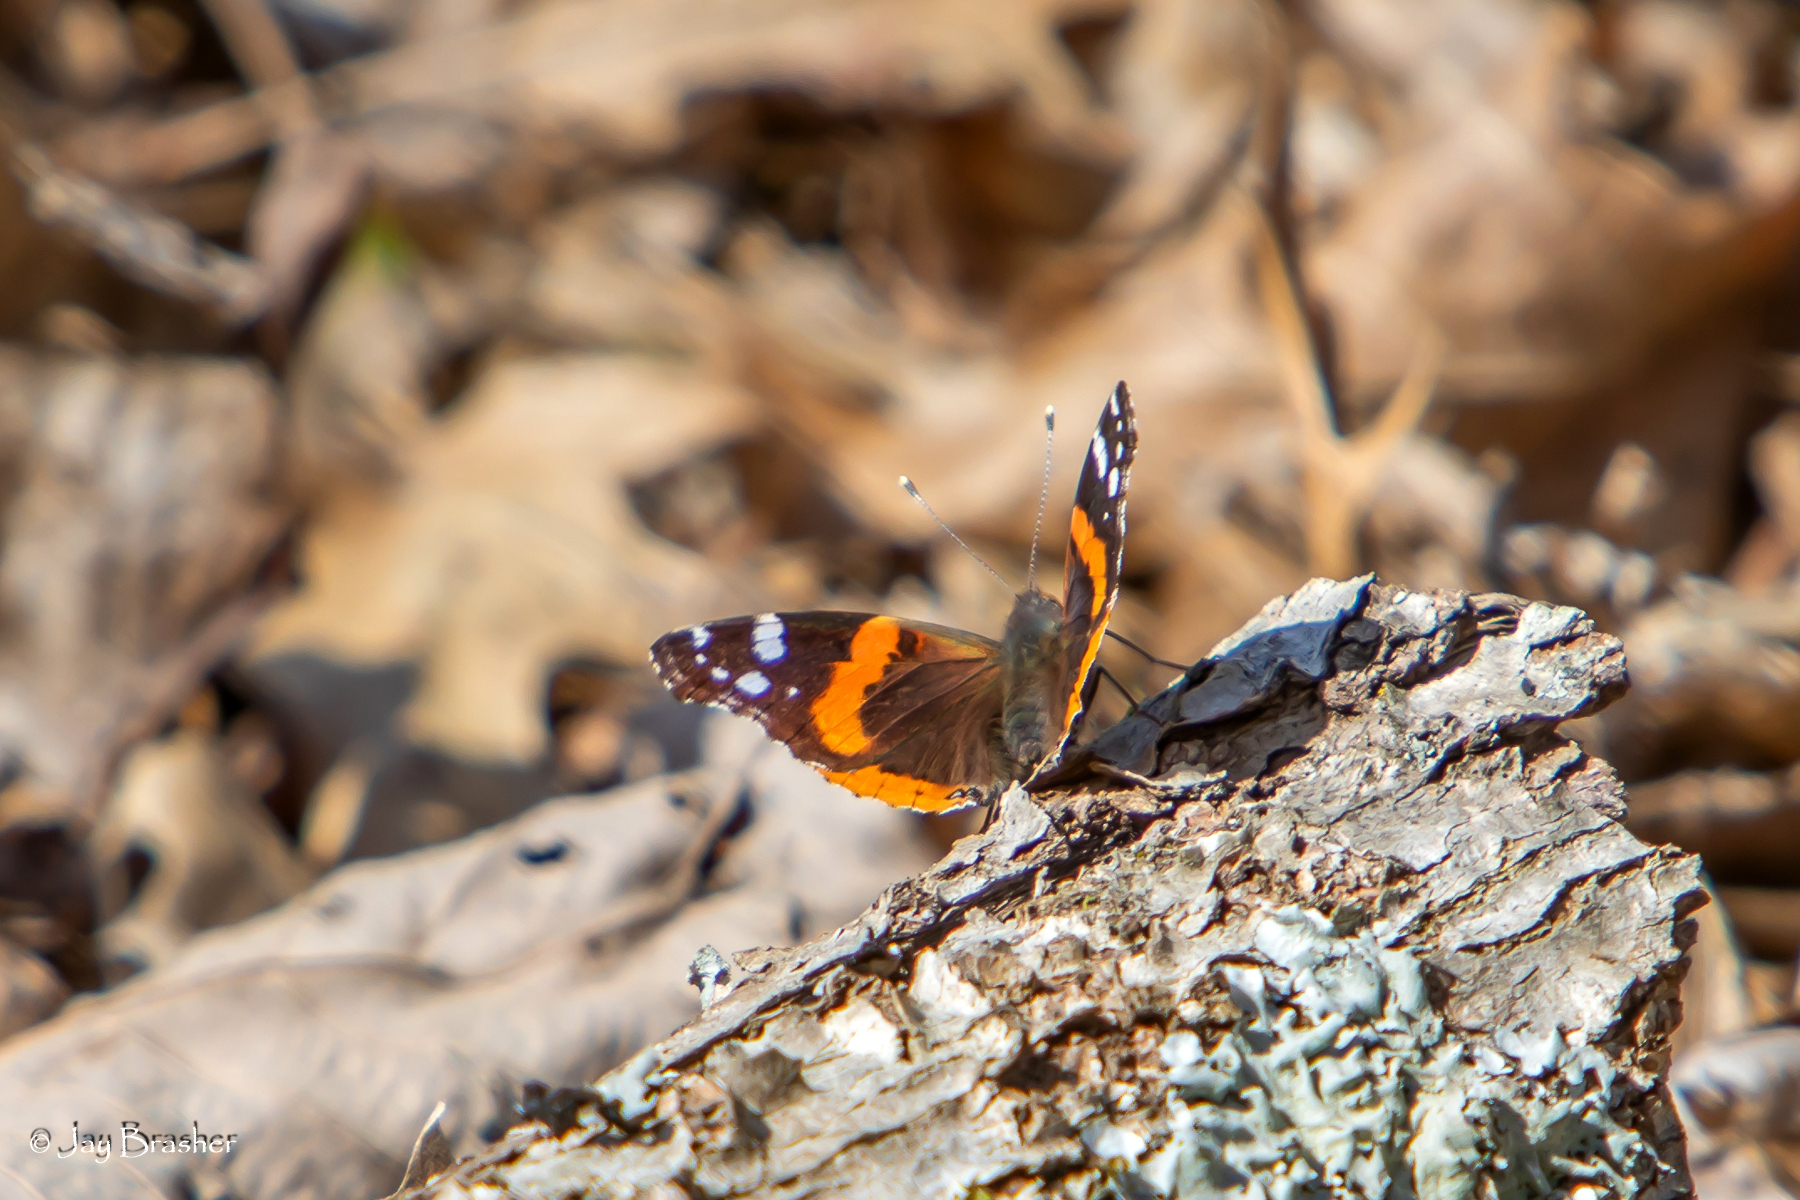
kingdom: Animalia
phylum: Arthropoda
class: Insecta
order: Lepidoptera
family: Nymphalidae
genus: Vanessa
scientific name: Vanessa atalanta
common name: Red admiral
